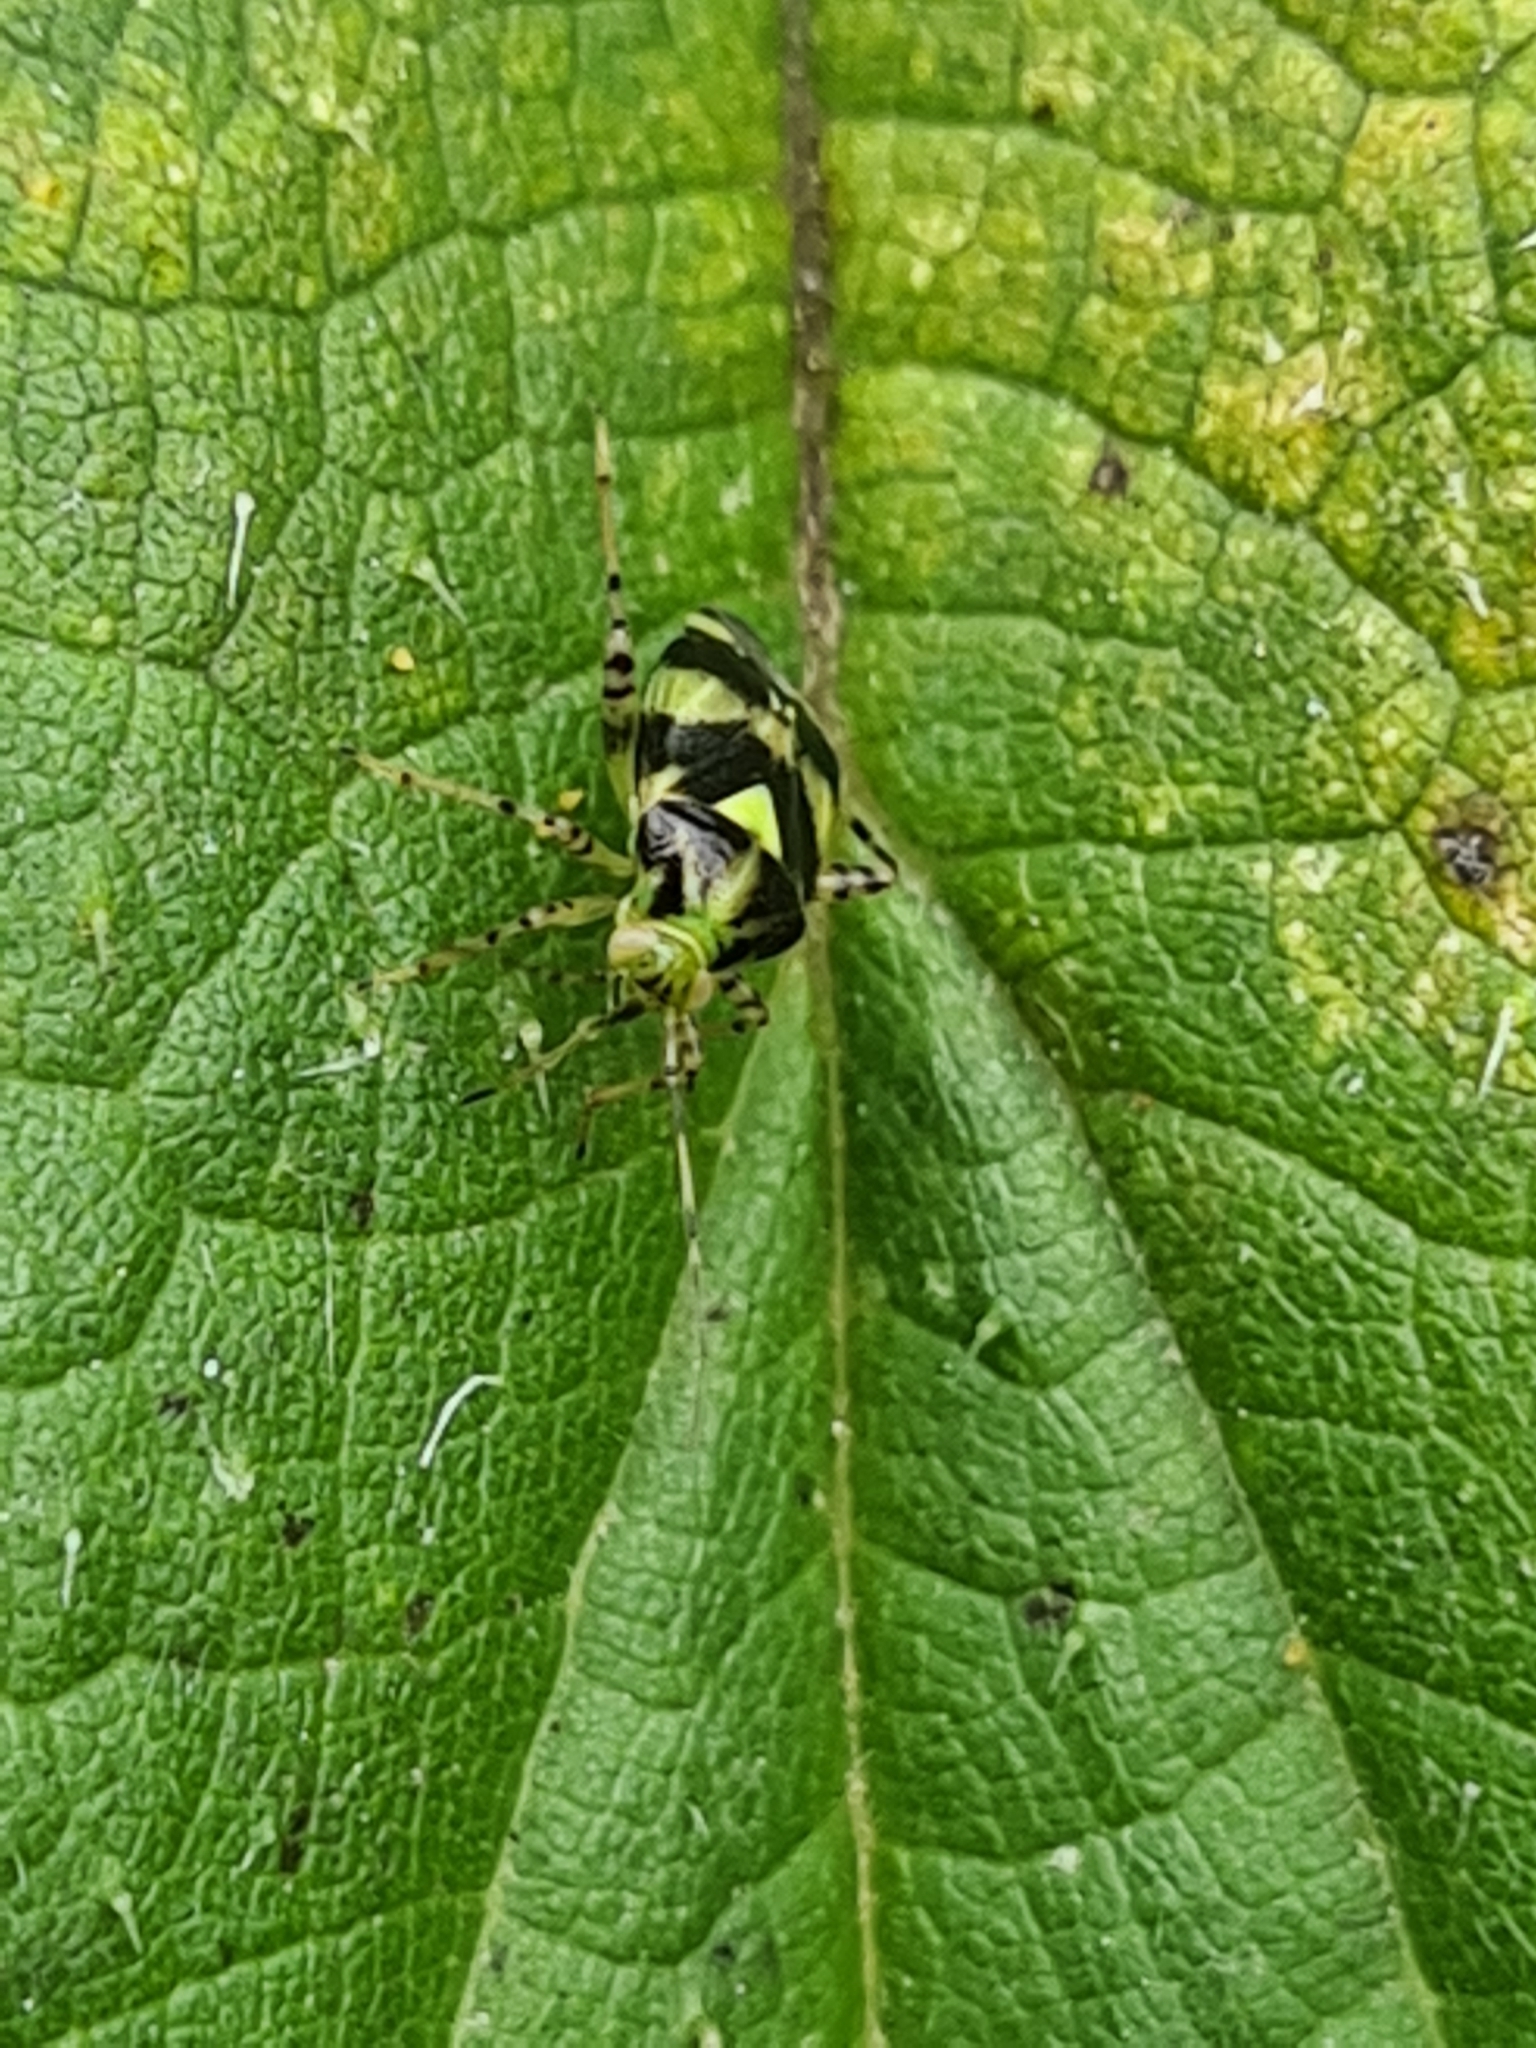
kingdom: Animalia
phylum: Arthropoda
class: Insecta
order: Hemiptera
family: Miridae
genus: Liocoris
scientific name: Liocoris tripustulatus
